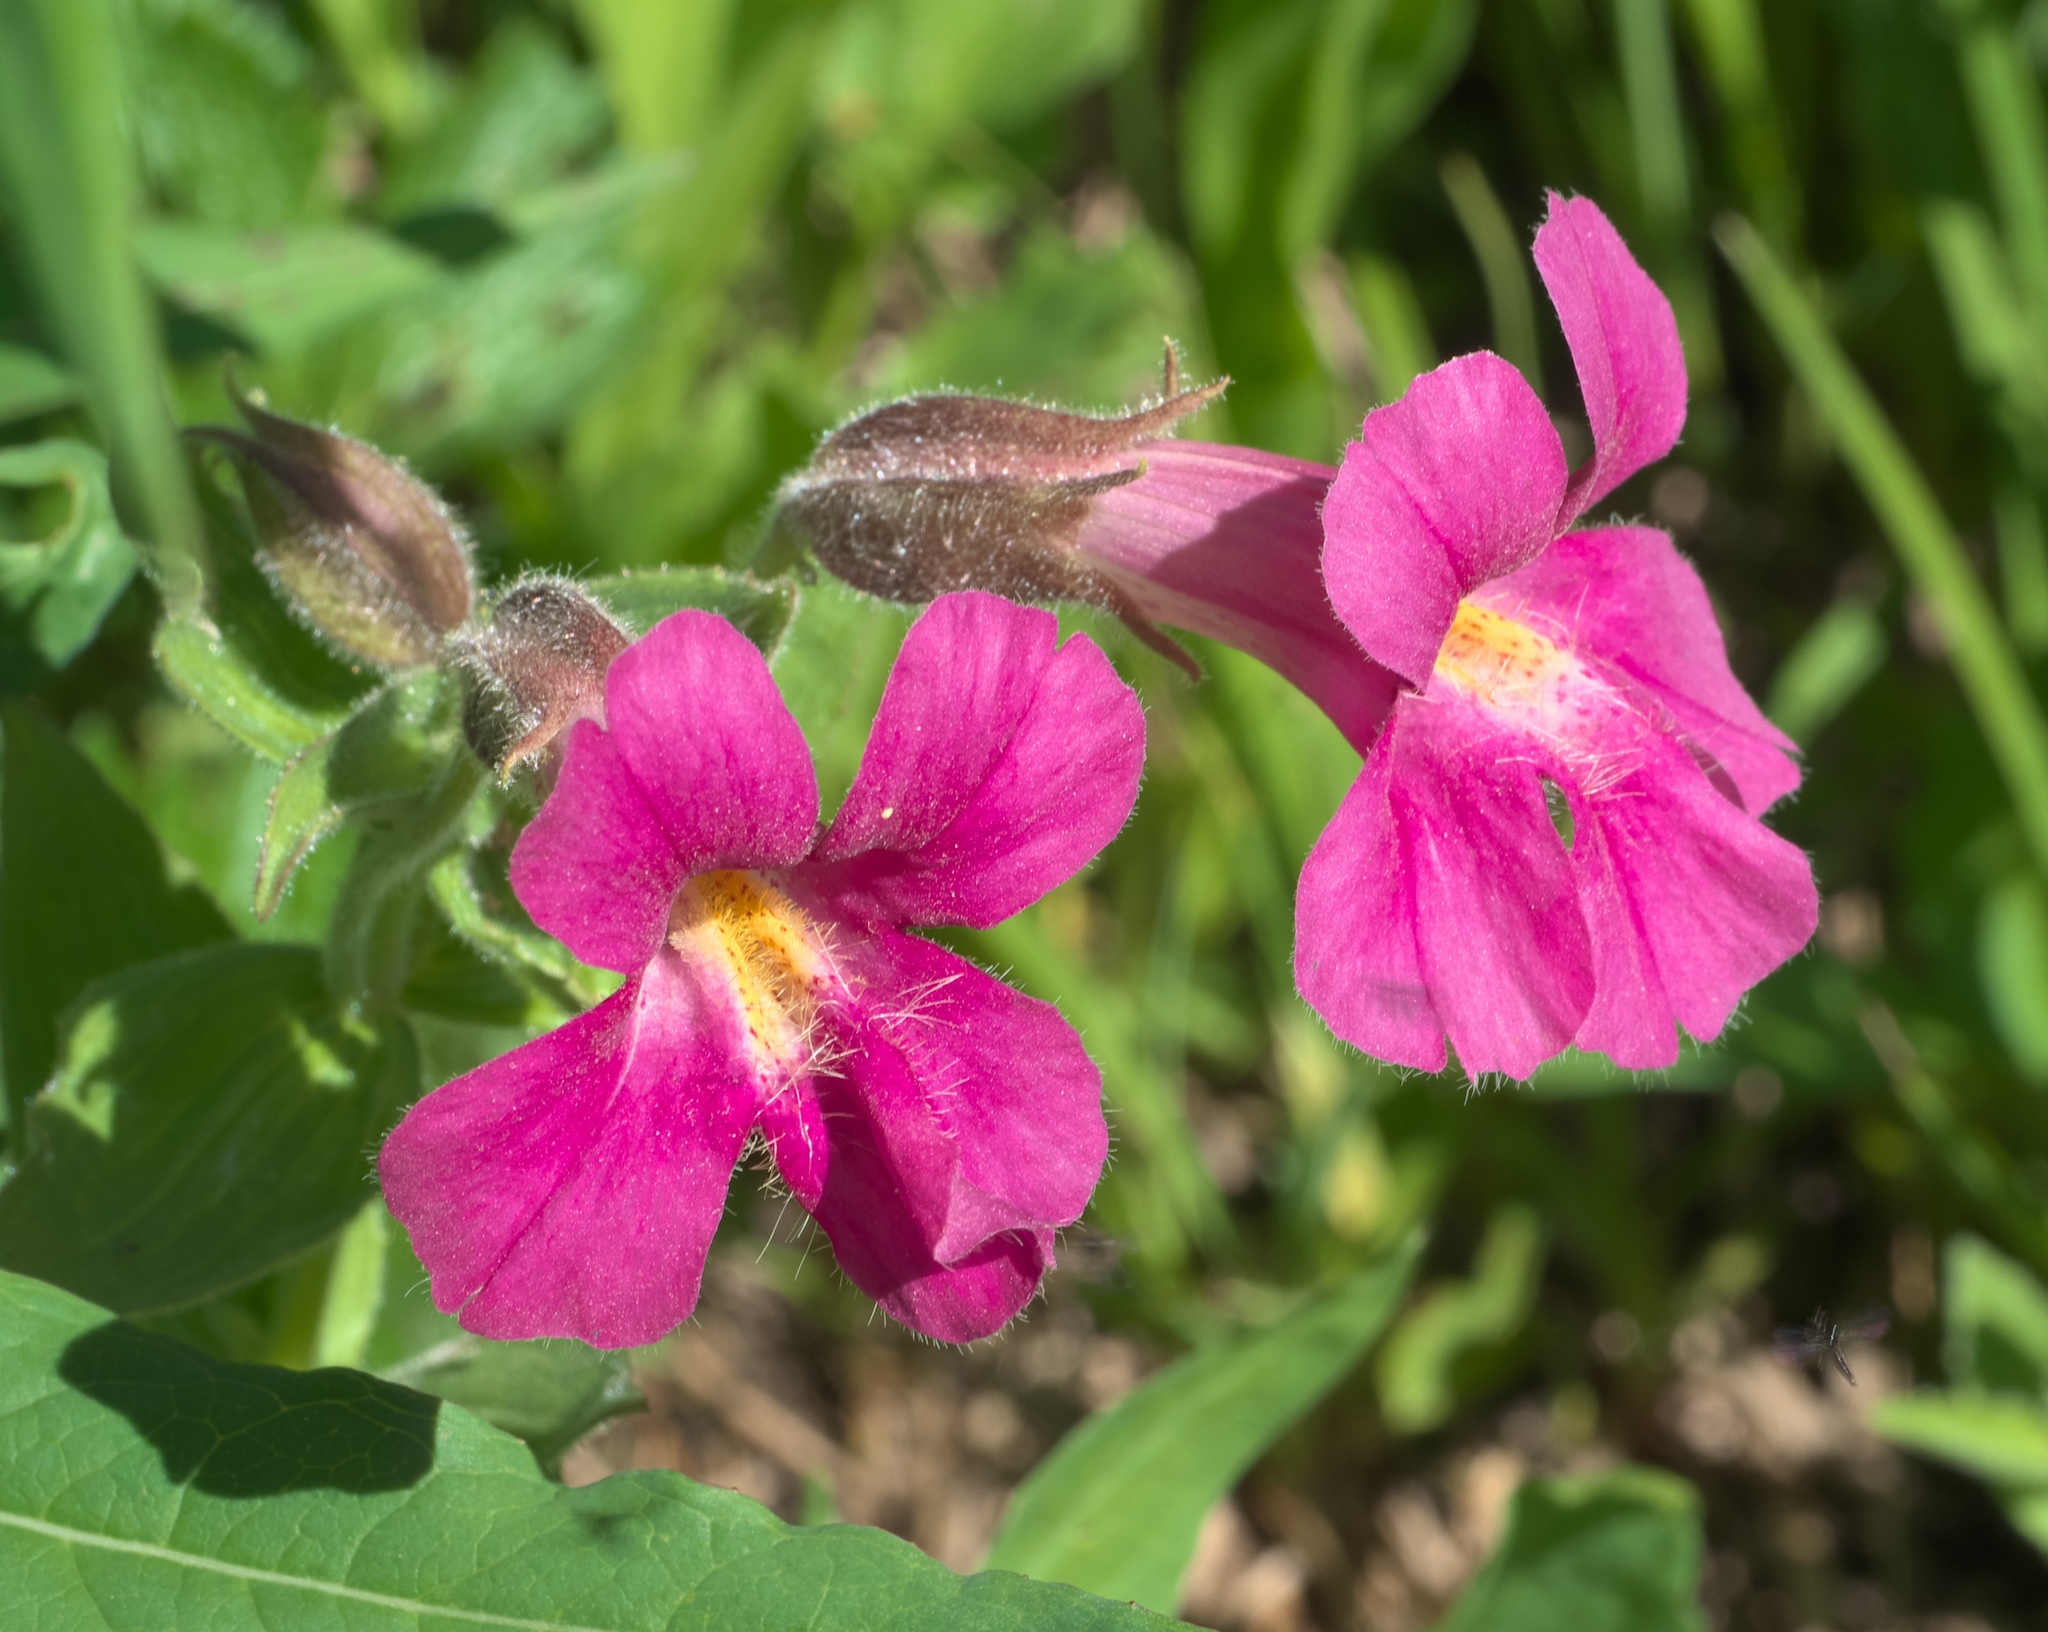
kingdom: Plantae
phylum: Tracheophyta
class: Magnoliopsida
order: Lamiales
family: Phrymaceae
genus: Erythranthe
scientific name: Erythranthe lewisii
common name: Lewis's monkey-flower
